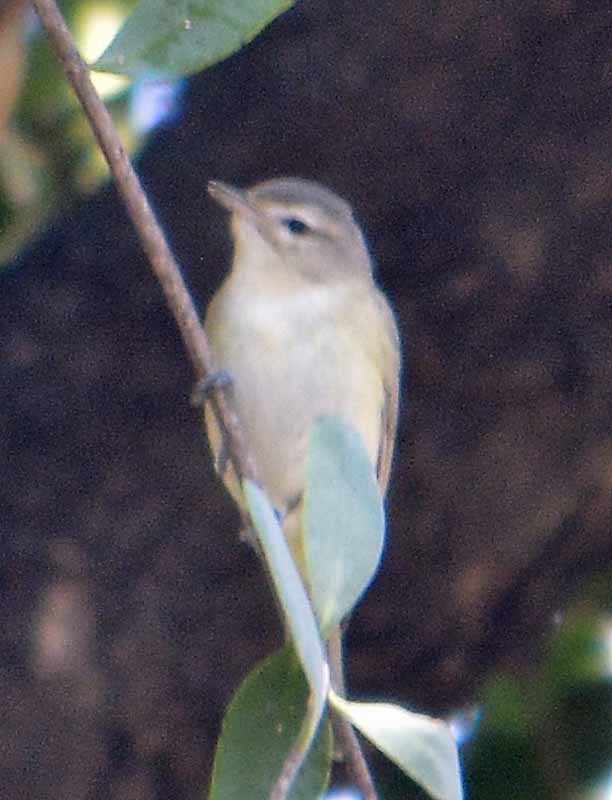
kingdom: Animalia
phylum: Chordata
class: Aves
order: Passeriformes
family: Vireonidae
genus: Vireo
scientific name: Vireo gilvus
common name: Warbling vireo
